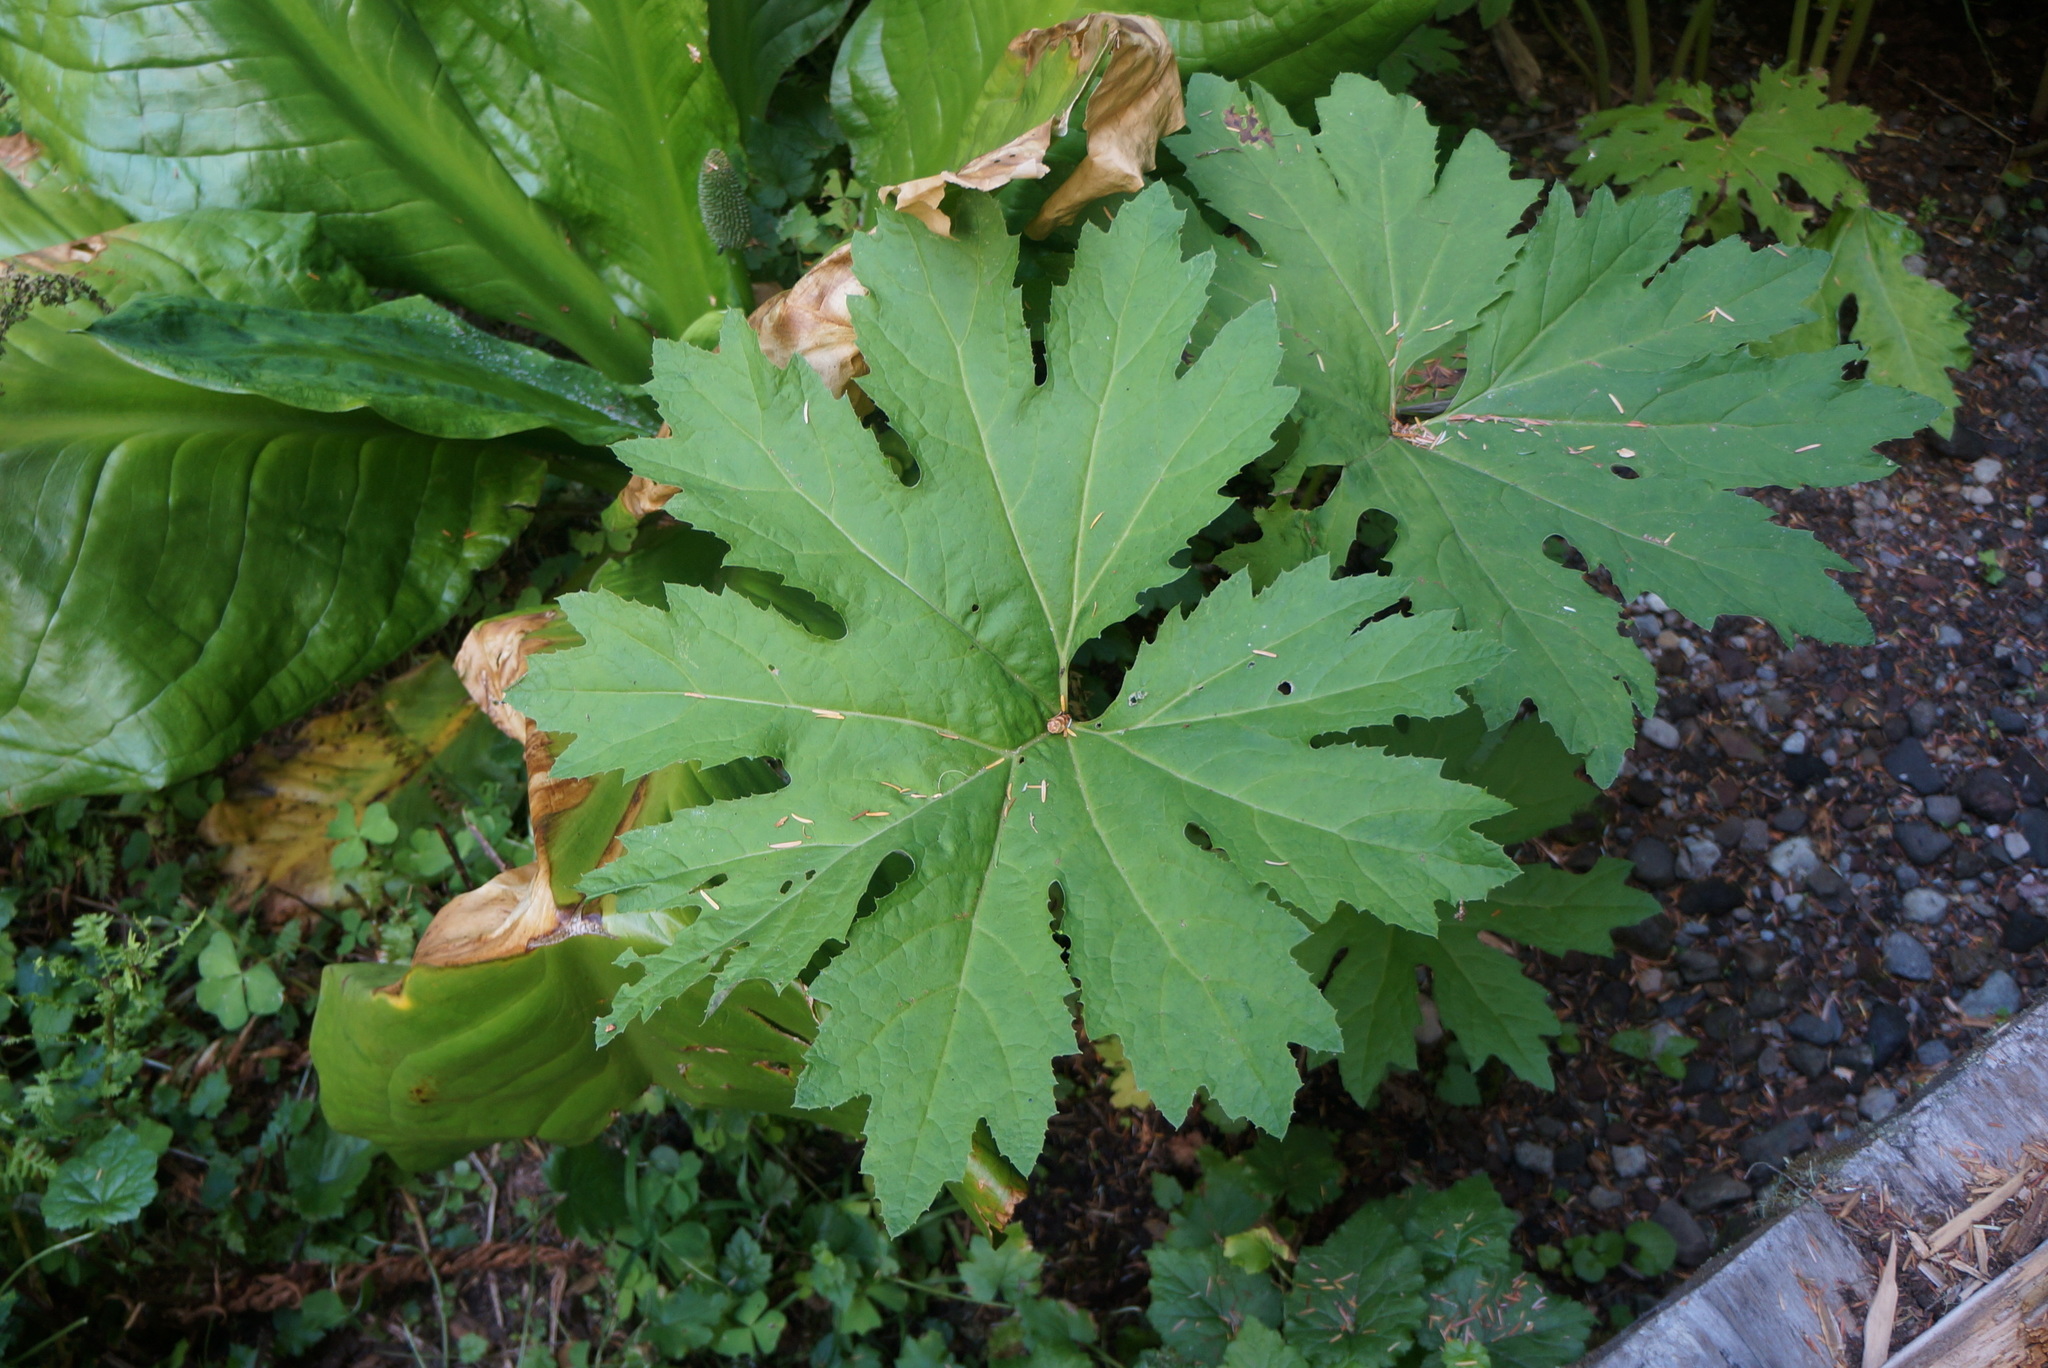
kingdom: Plantae
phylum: Tracheophyta
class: Magnoliopsida
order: Asterales
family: Asteraceae
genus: Petasites
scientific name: Petasites frigidus
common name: Arctic butterbur
